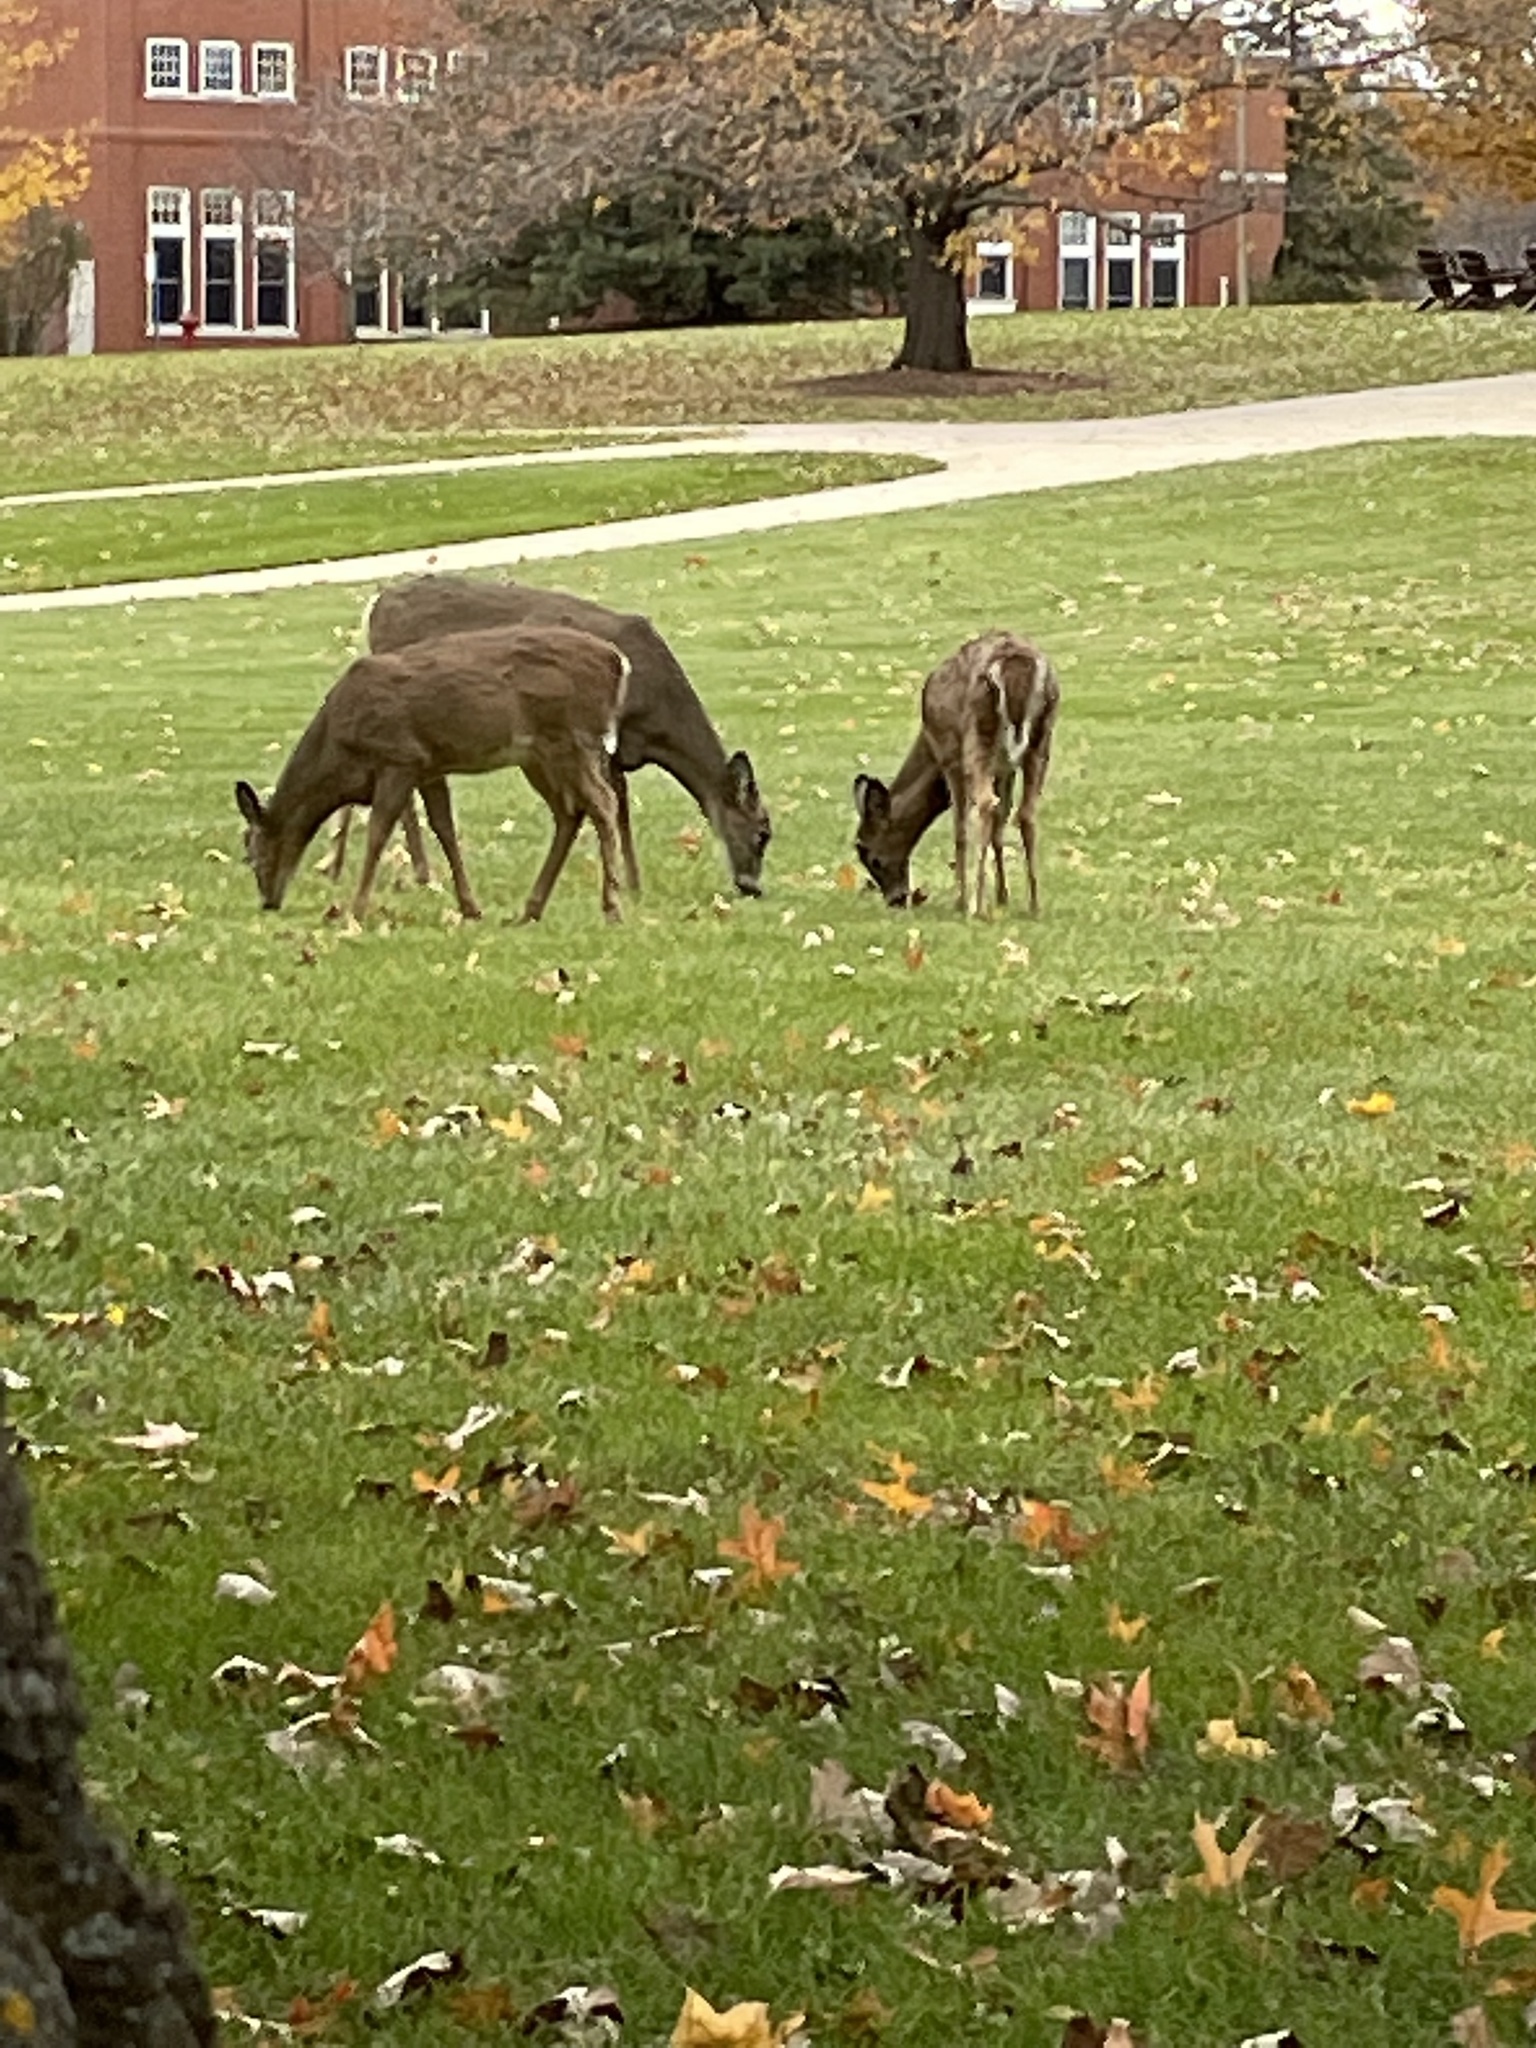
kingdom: Animalia
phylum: Chordata
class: Mammalia
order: Artiodactyla
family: Cervidae
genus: Odocoileus
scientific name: Odocoileus virginianus
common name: White-tailed deer
